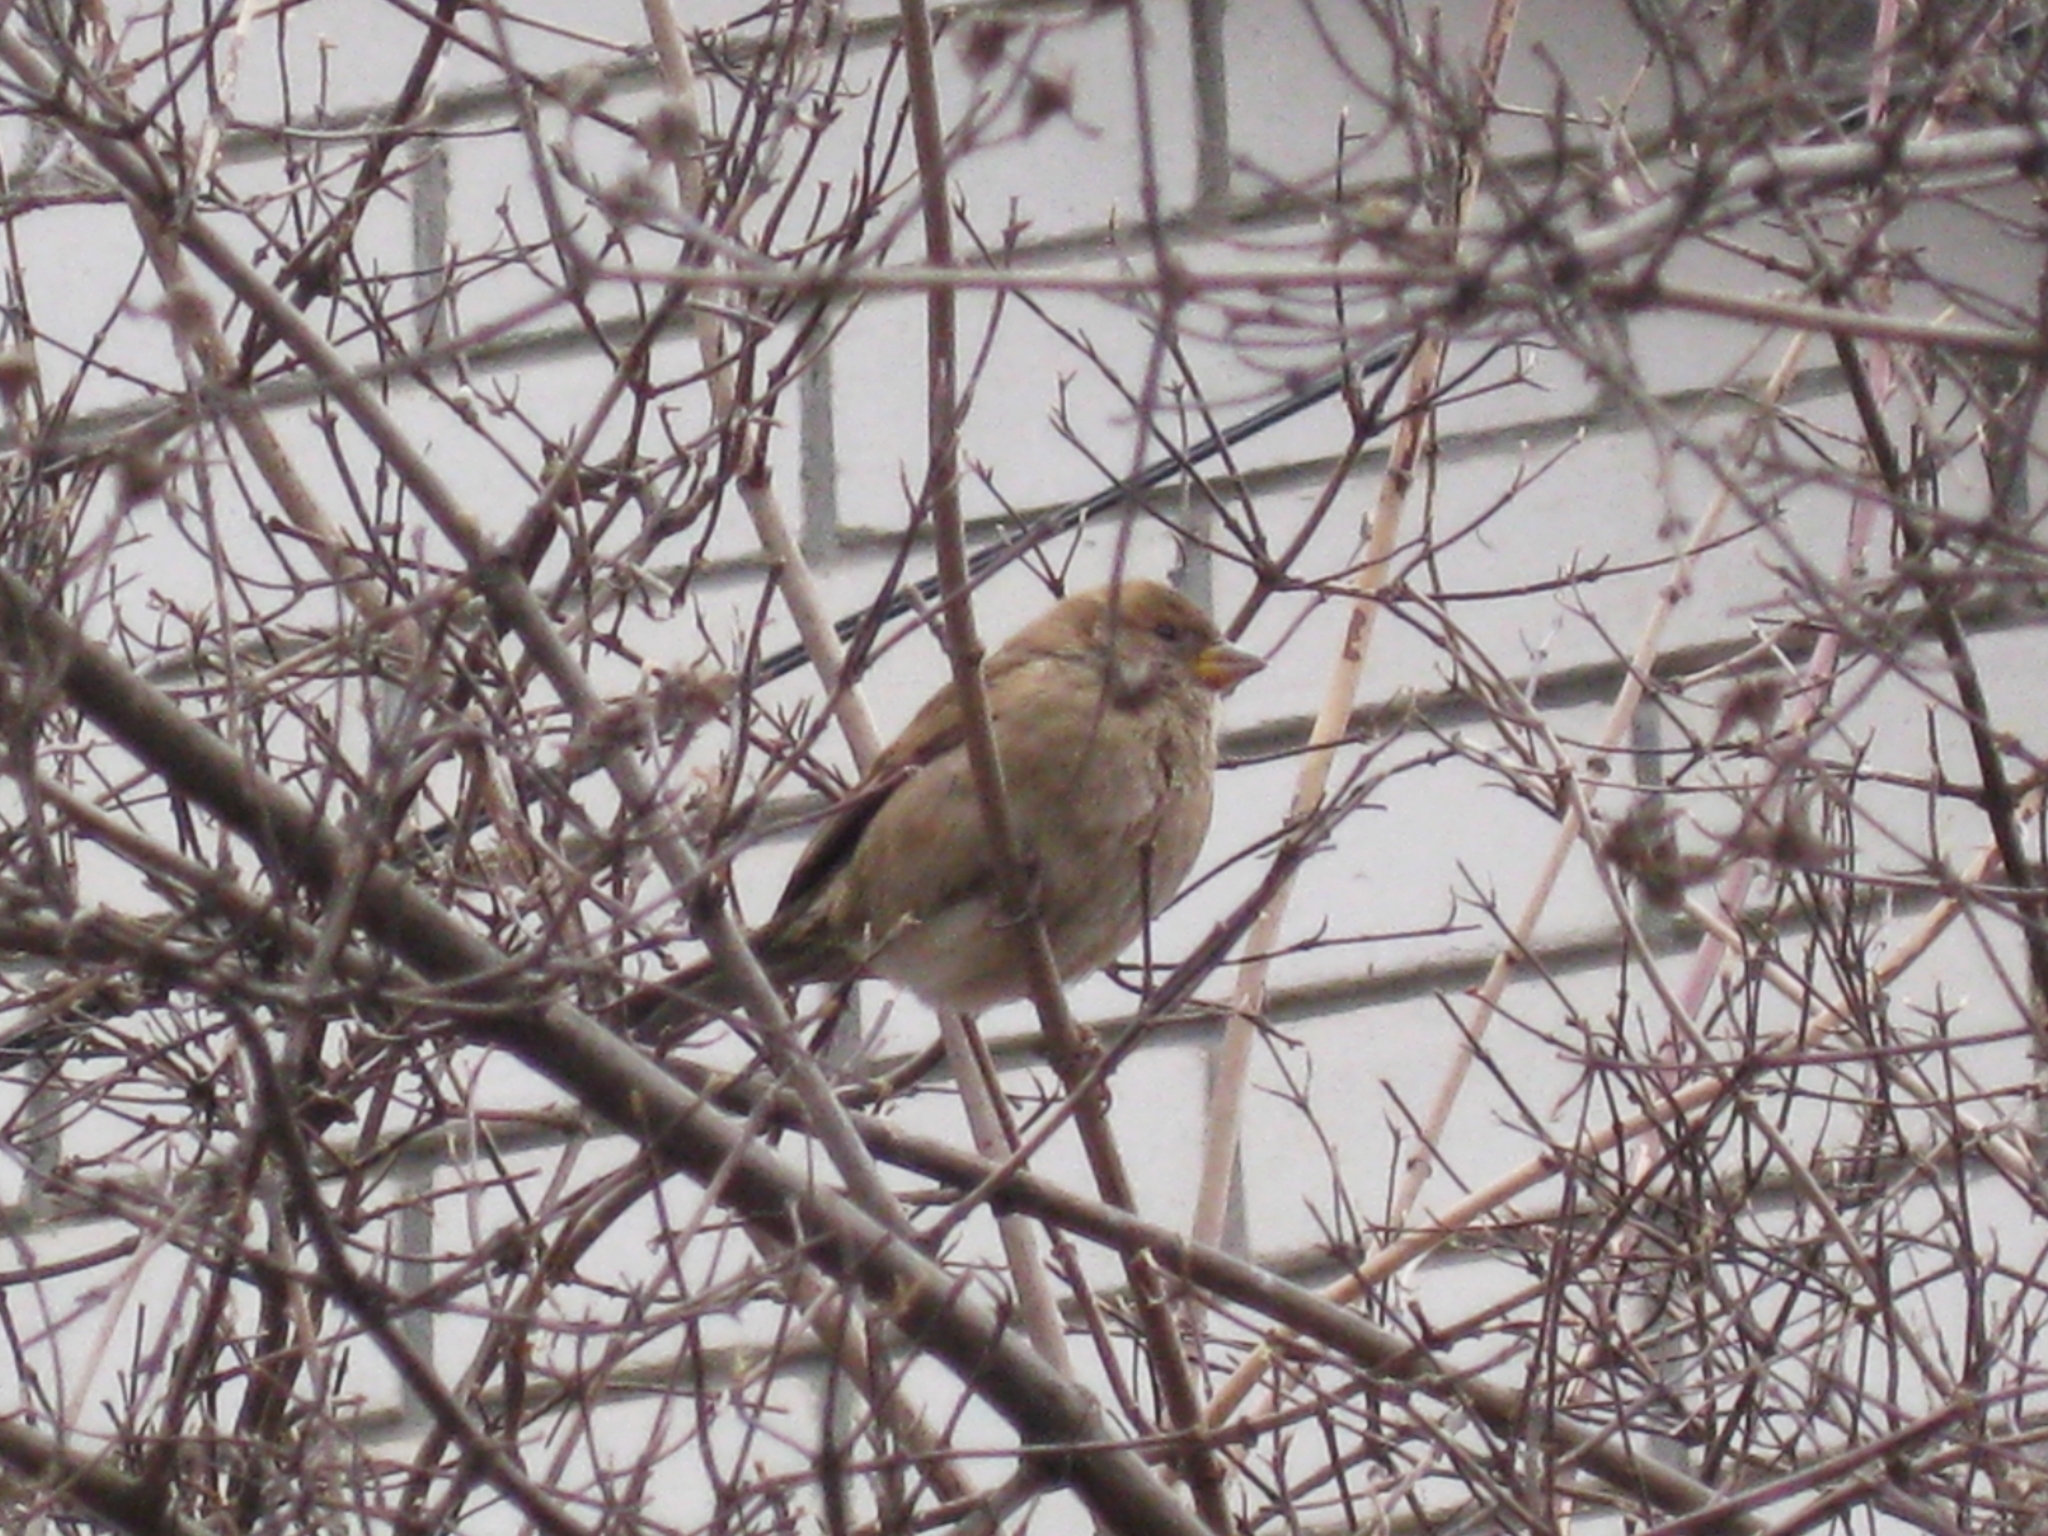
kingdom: Animalia
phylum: Chordata
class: Aves
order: Passeriformes
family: Passeridae
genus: Passer
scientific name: Passer domesticus
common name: House sparrow
